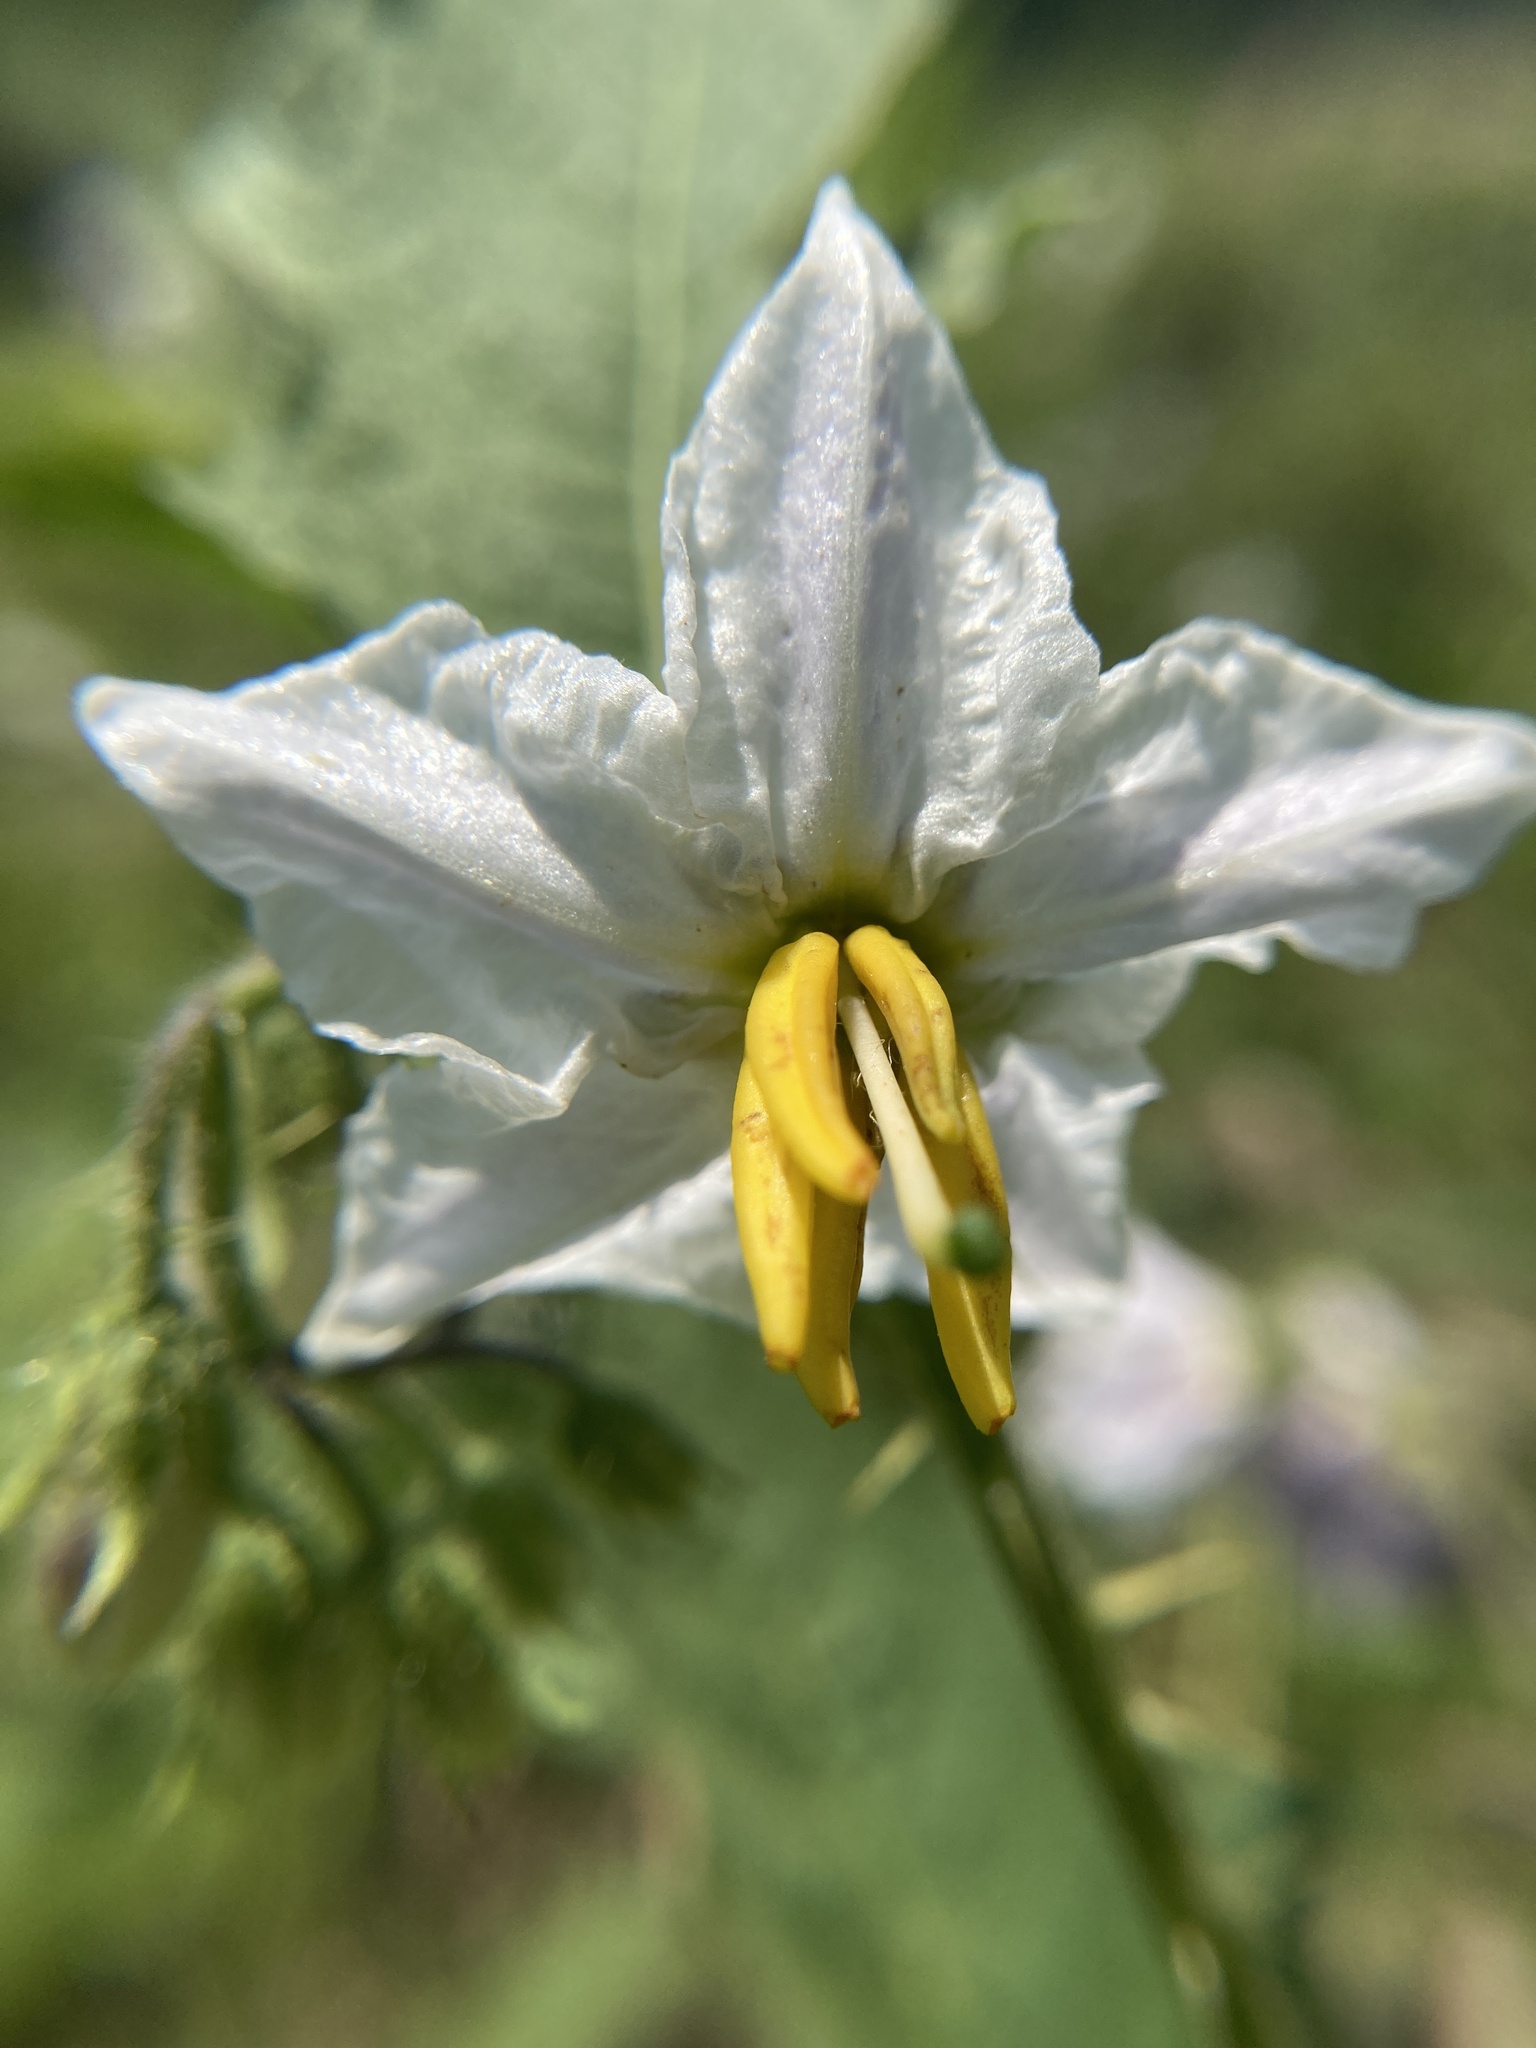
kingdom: Plantae
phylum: Tracheophyta
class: Magnoliopsida
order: Solanales
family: Solanaceae
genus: Solanum
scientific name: Solanum carolinense
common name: Horse-nettle
